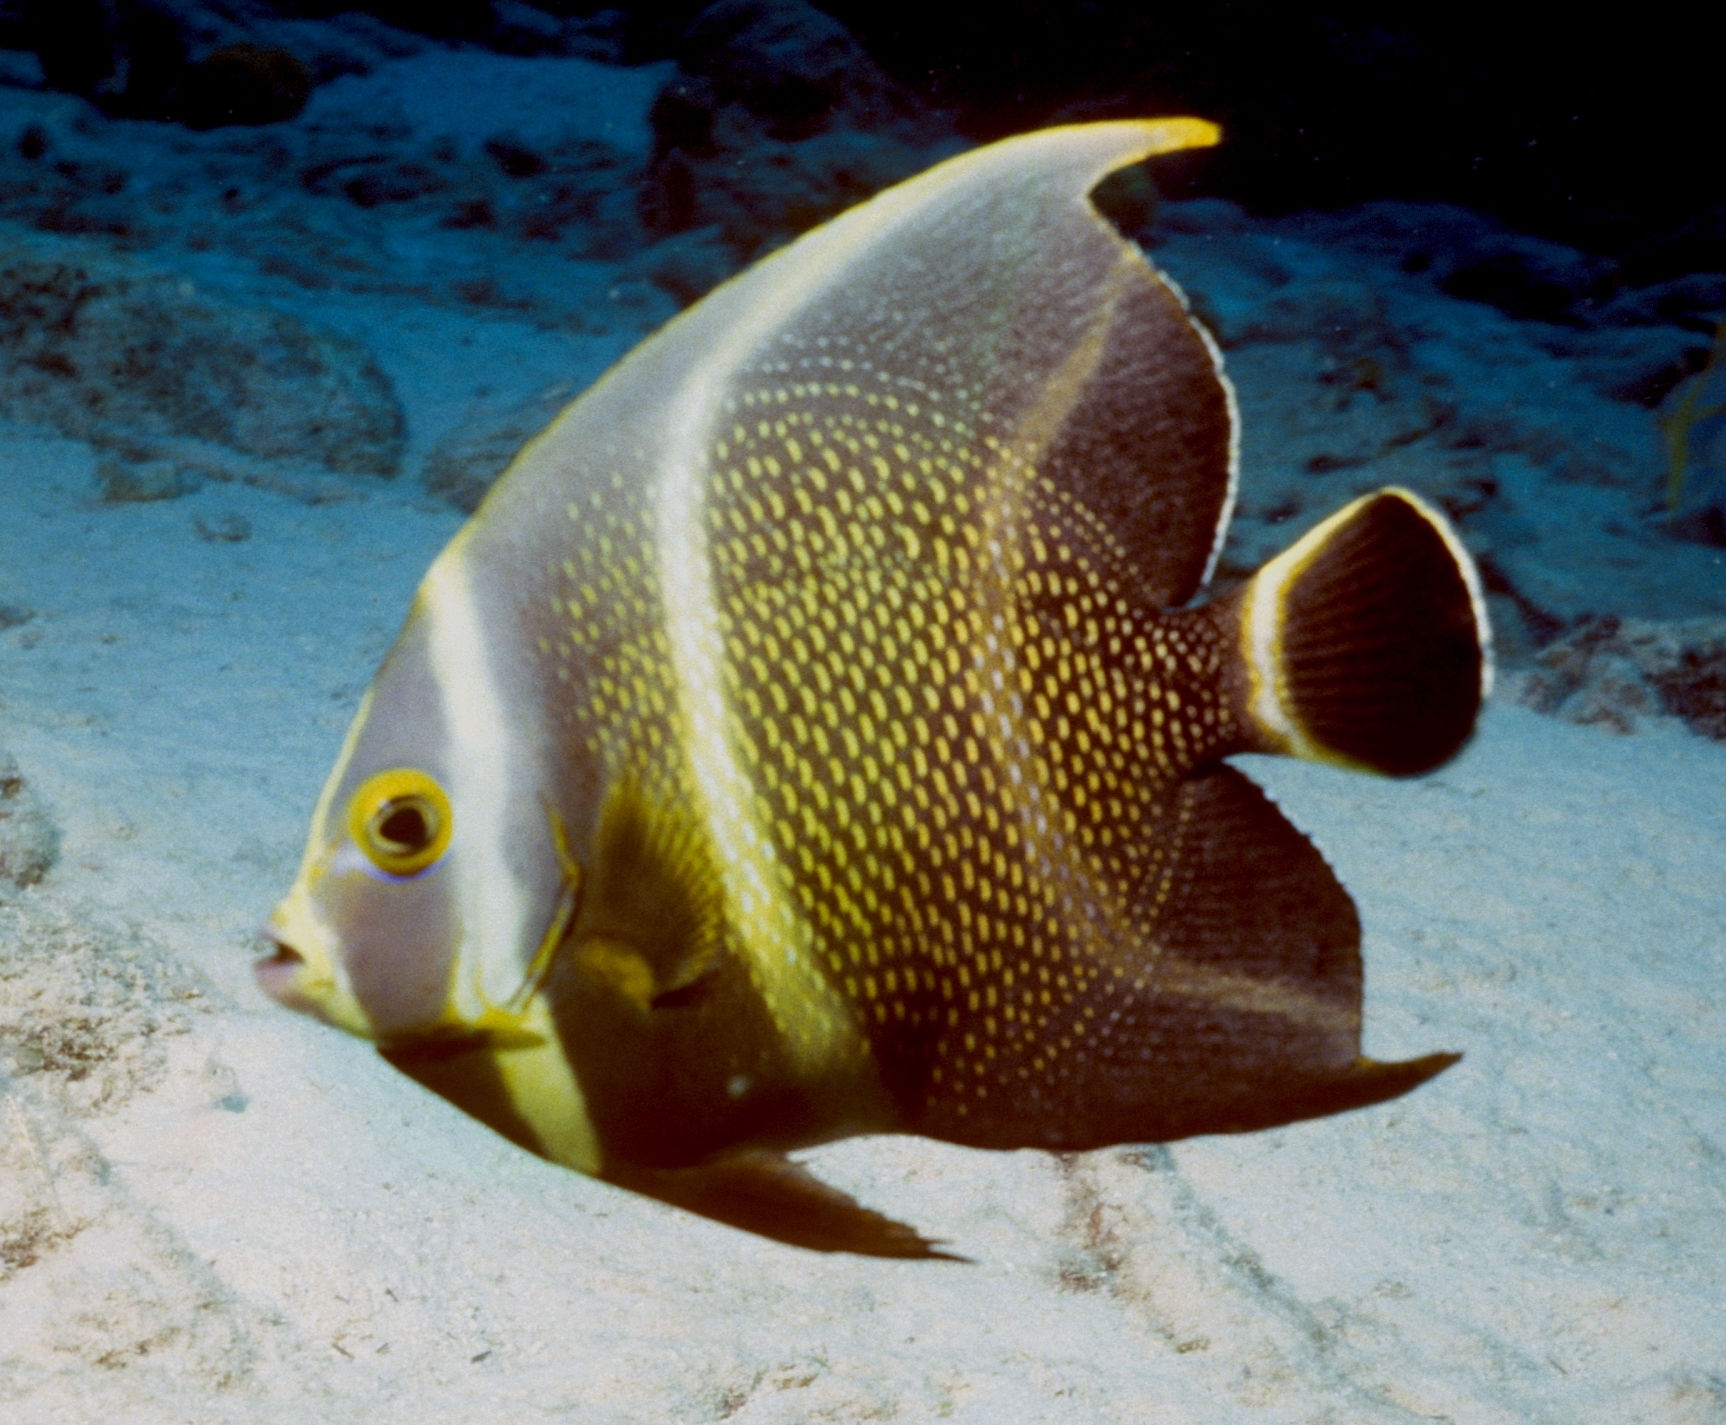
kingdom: Animalia
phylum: Chordata
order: Perciformes
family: Pomacanthidae
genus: Pomacanthus
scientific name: Pomacanthus paru
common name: French angelfish
